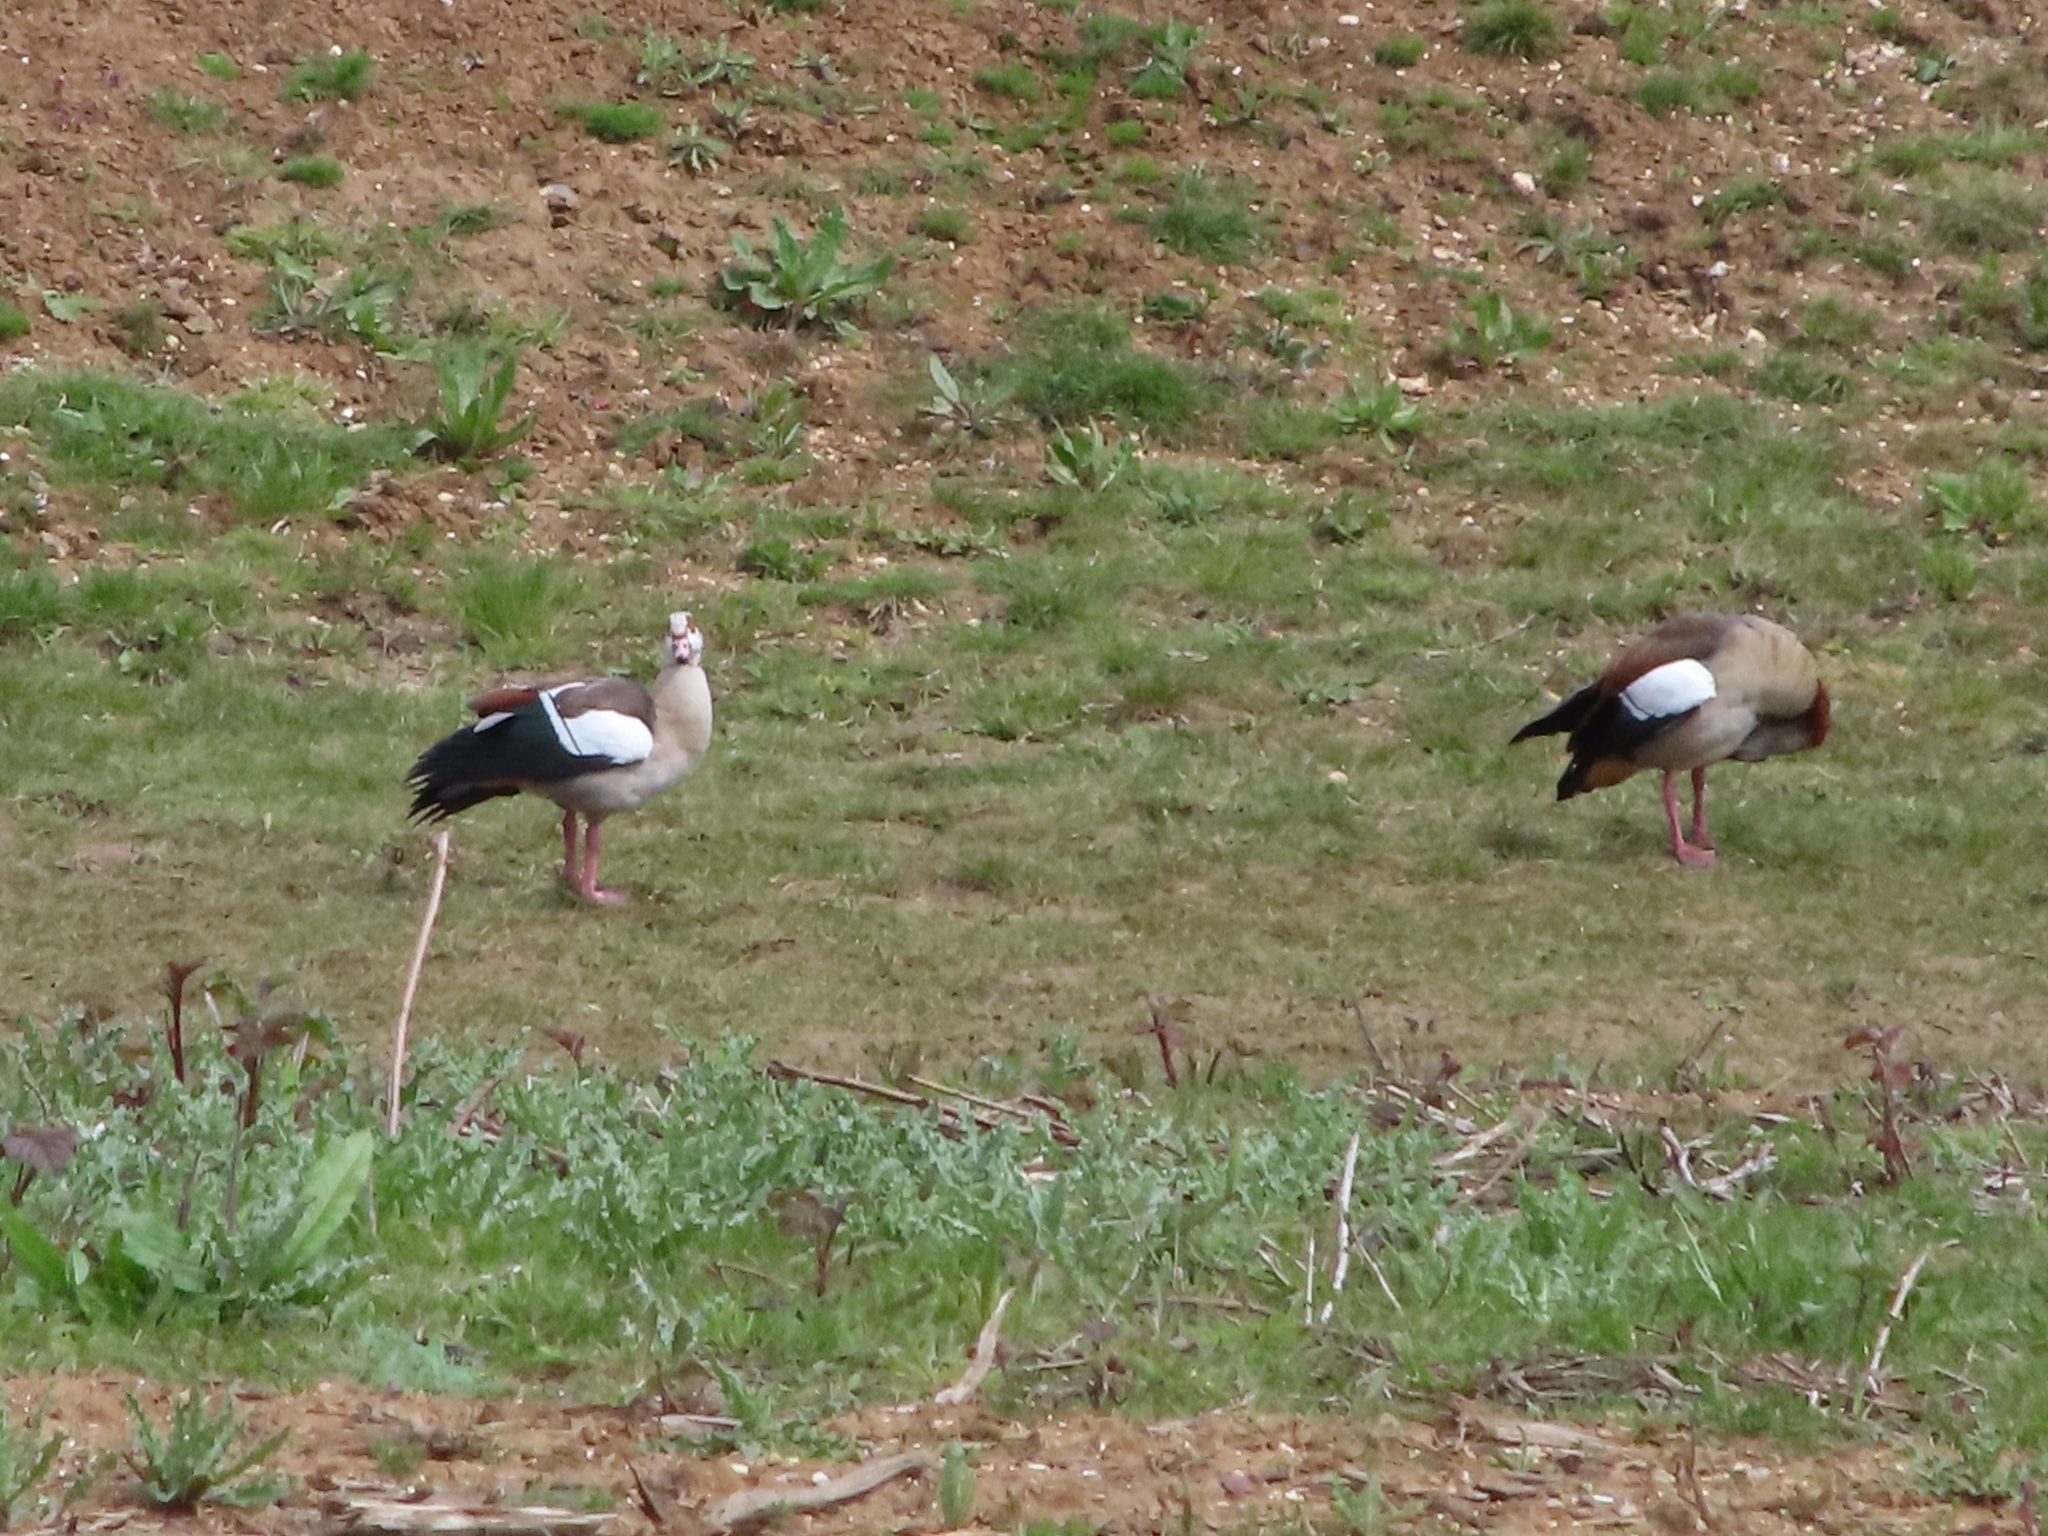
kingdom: Animalia
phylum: Chordata
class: Aves
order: Anseriformes
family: Anatidae
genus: Alopochen
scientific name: Alopochen aegyptiaca
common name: Egyptian goose
